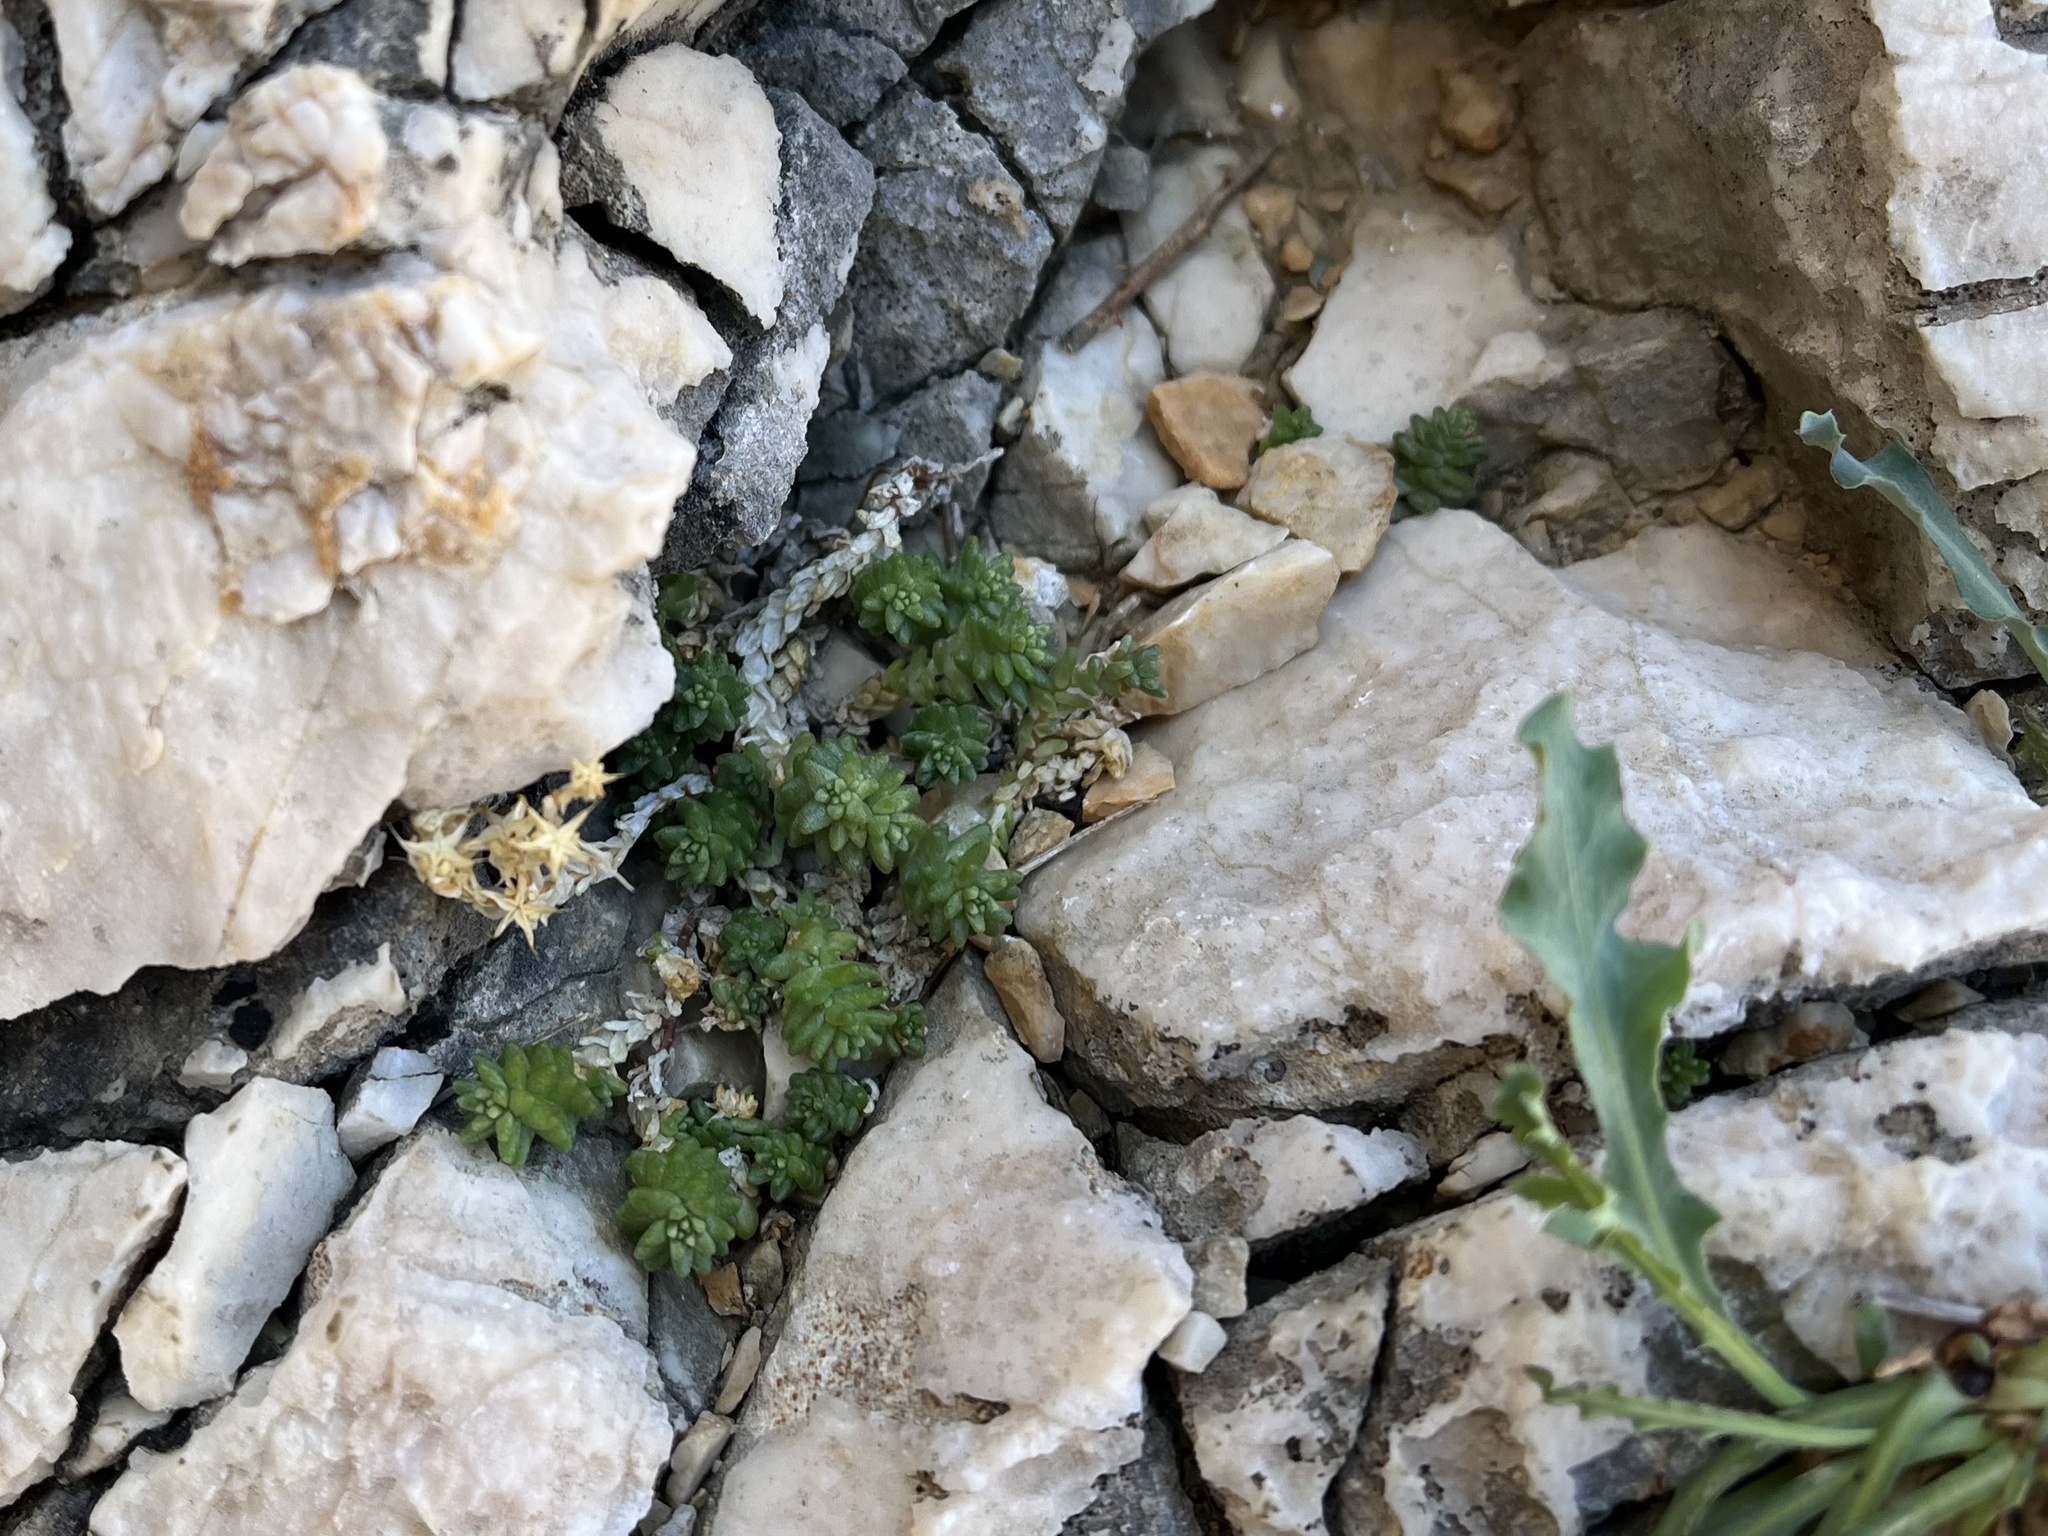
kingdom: Plantae
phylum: Tracheophyta
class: Magnoliopsida
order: Saxifragales
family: Crassulaceae
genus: Sedum
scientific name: Sedum acre
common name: Biting stonecrop
